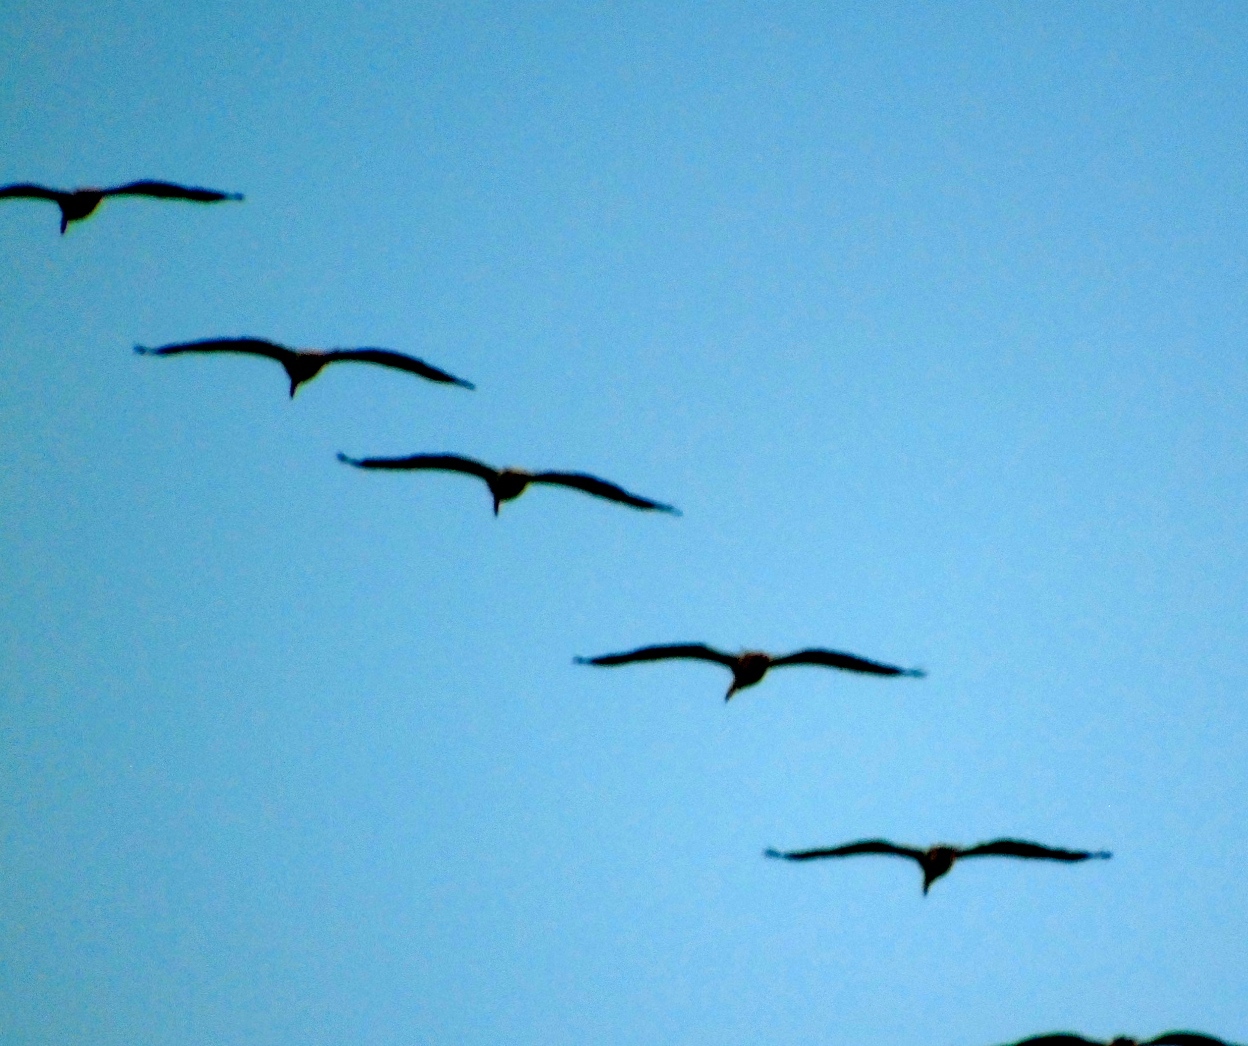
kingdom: Animalia
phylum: Chordata
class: Aves
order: Pelecaniformes
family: Pelecanidae
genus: Pelecanus
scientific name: Pelecanus
